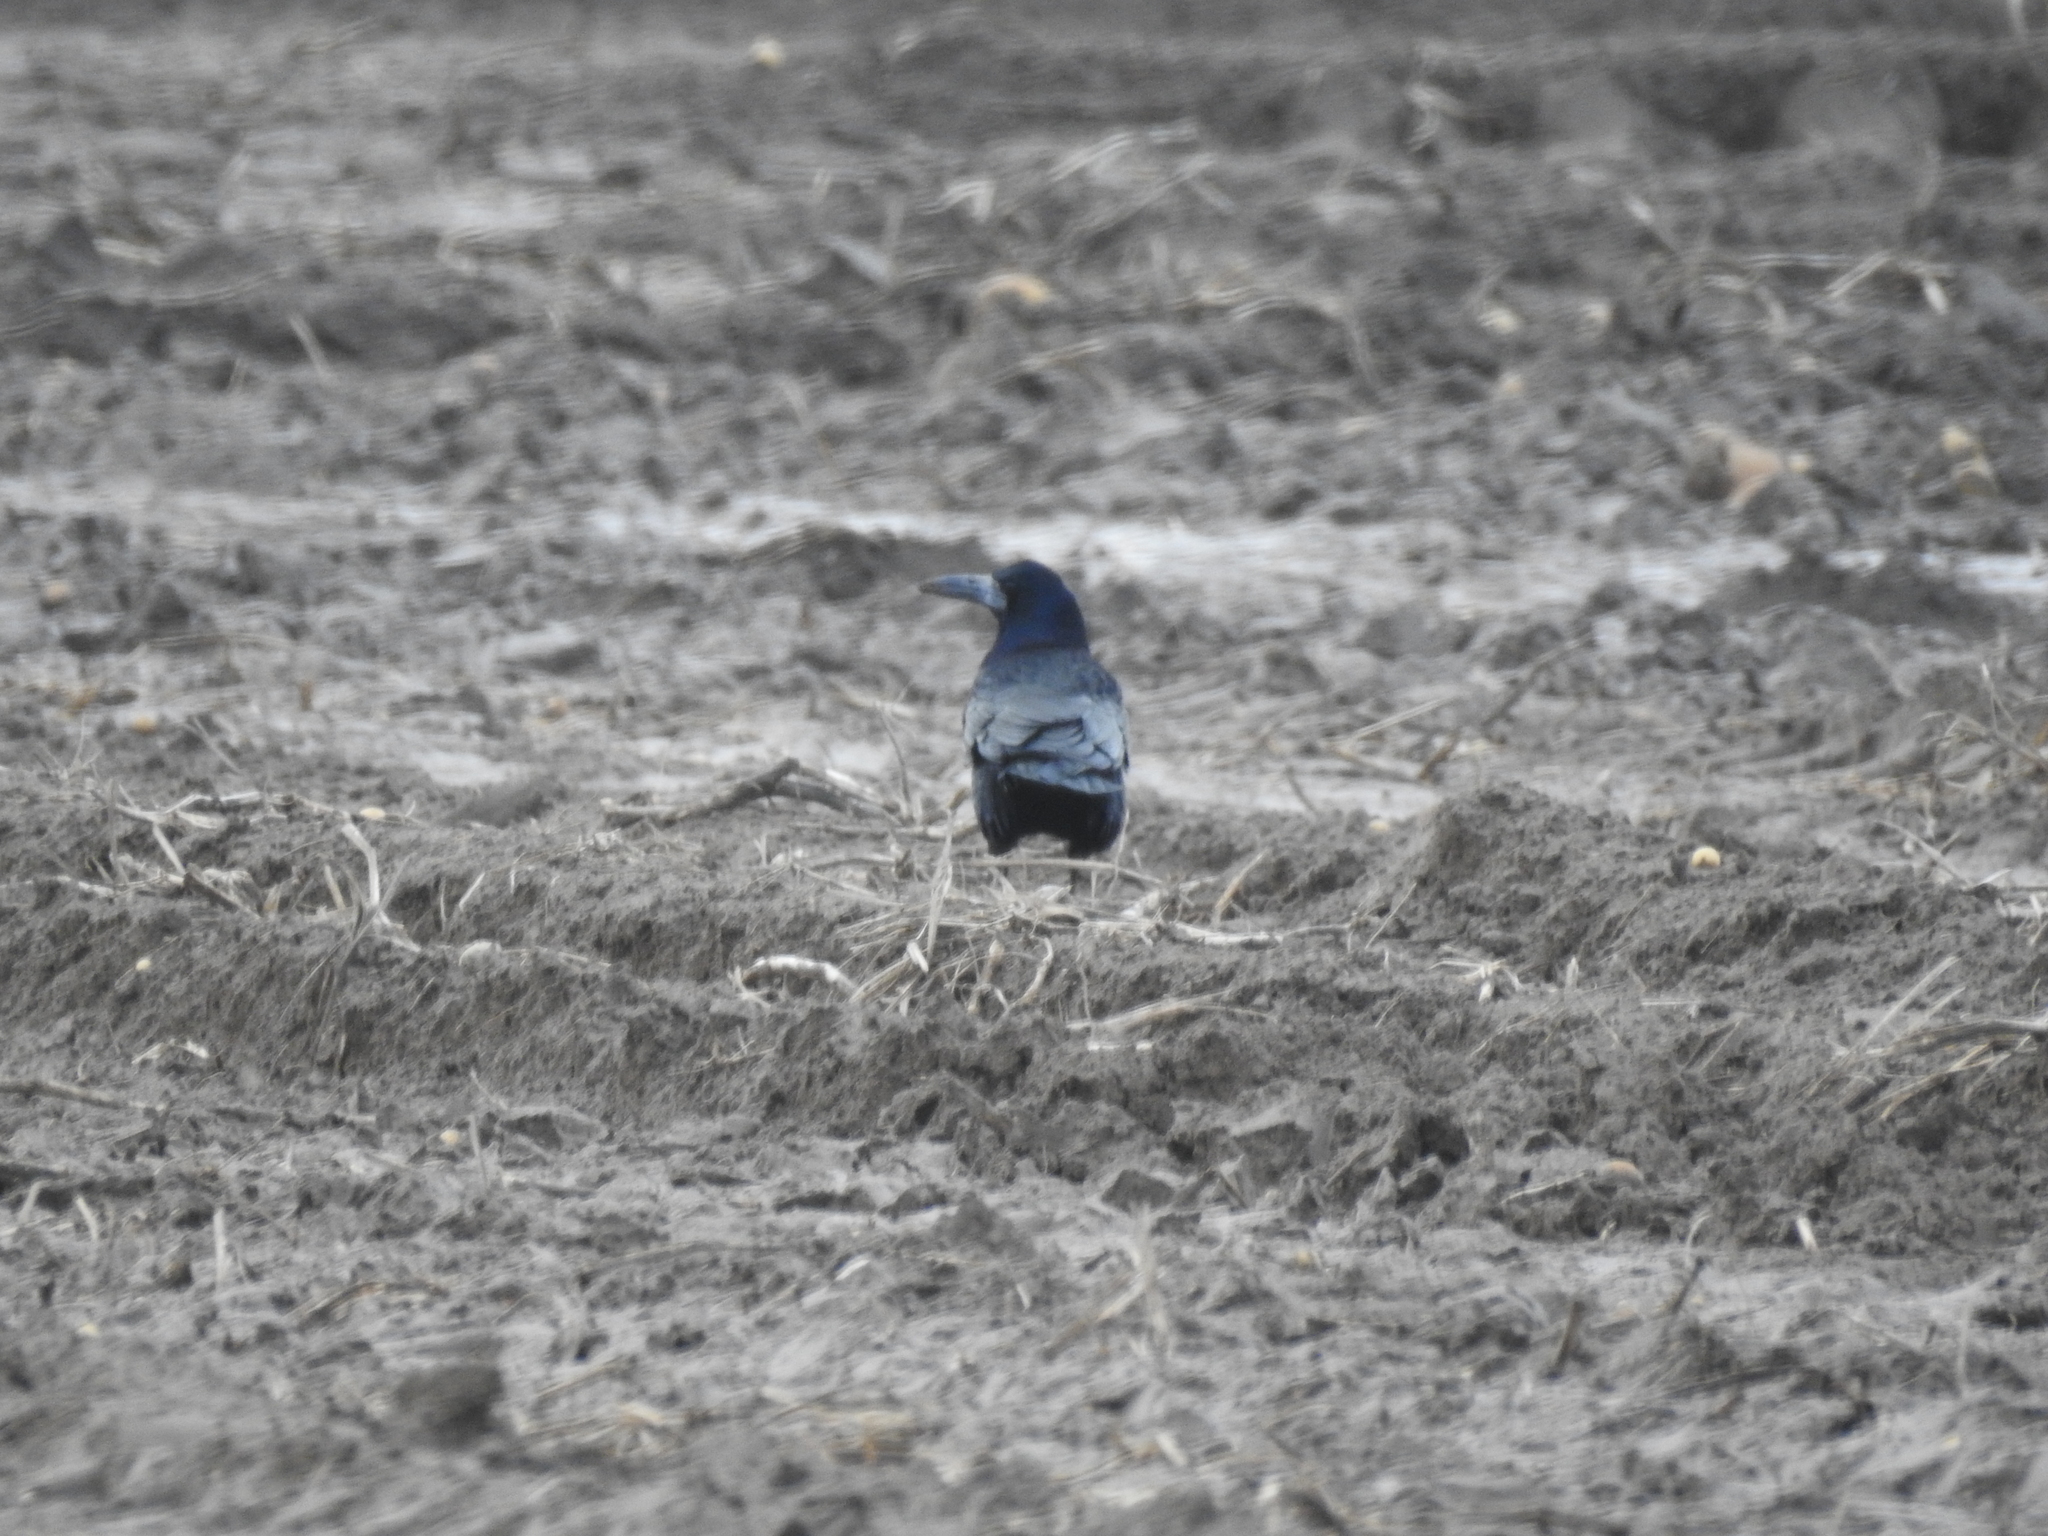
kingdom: Animalia
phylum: Chordata
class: Aves
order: Passeriformes
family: Corvidae
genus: Corvus
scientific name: Corvus frugilegus
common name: Rook
